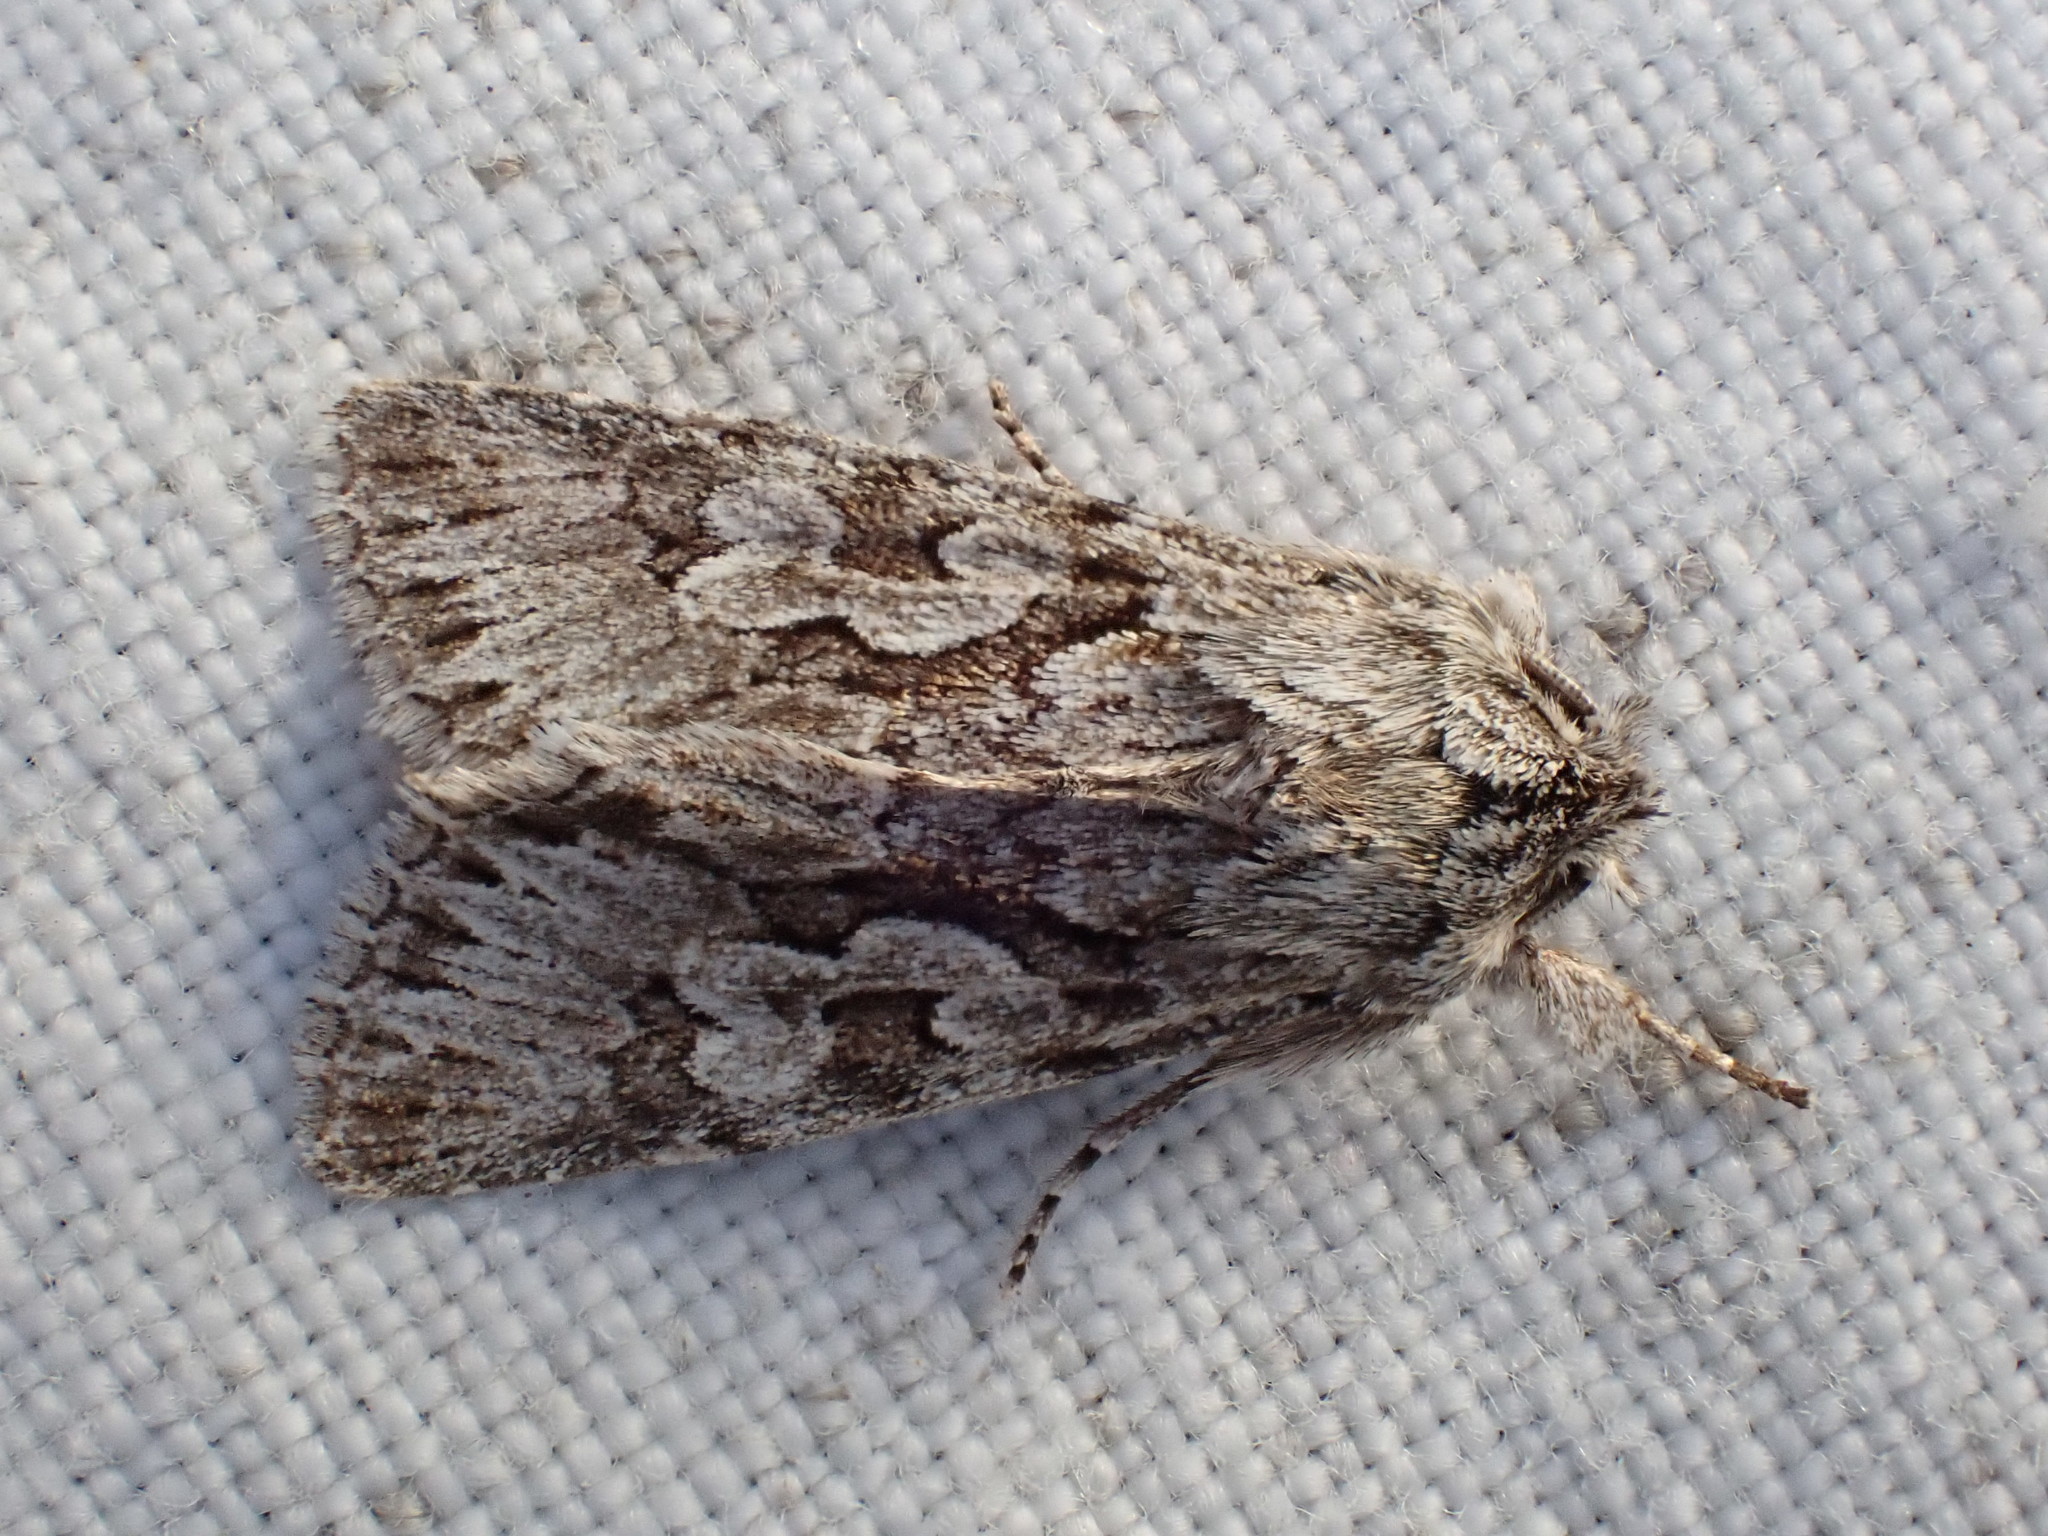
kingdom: Animalia
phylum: Arthropoda
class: Insecta
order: Lepidoptera
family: Noctuidae
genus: Xylocampa
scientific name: Xylocampa areola
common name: Early grey
